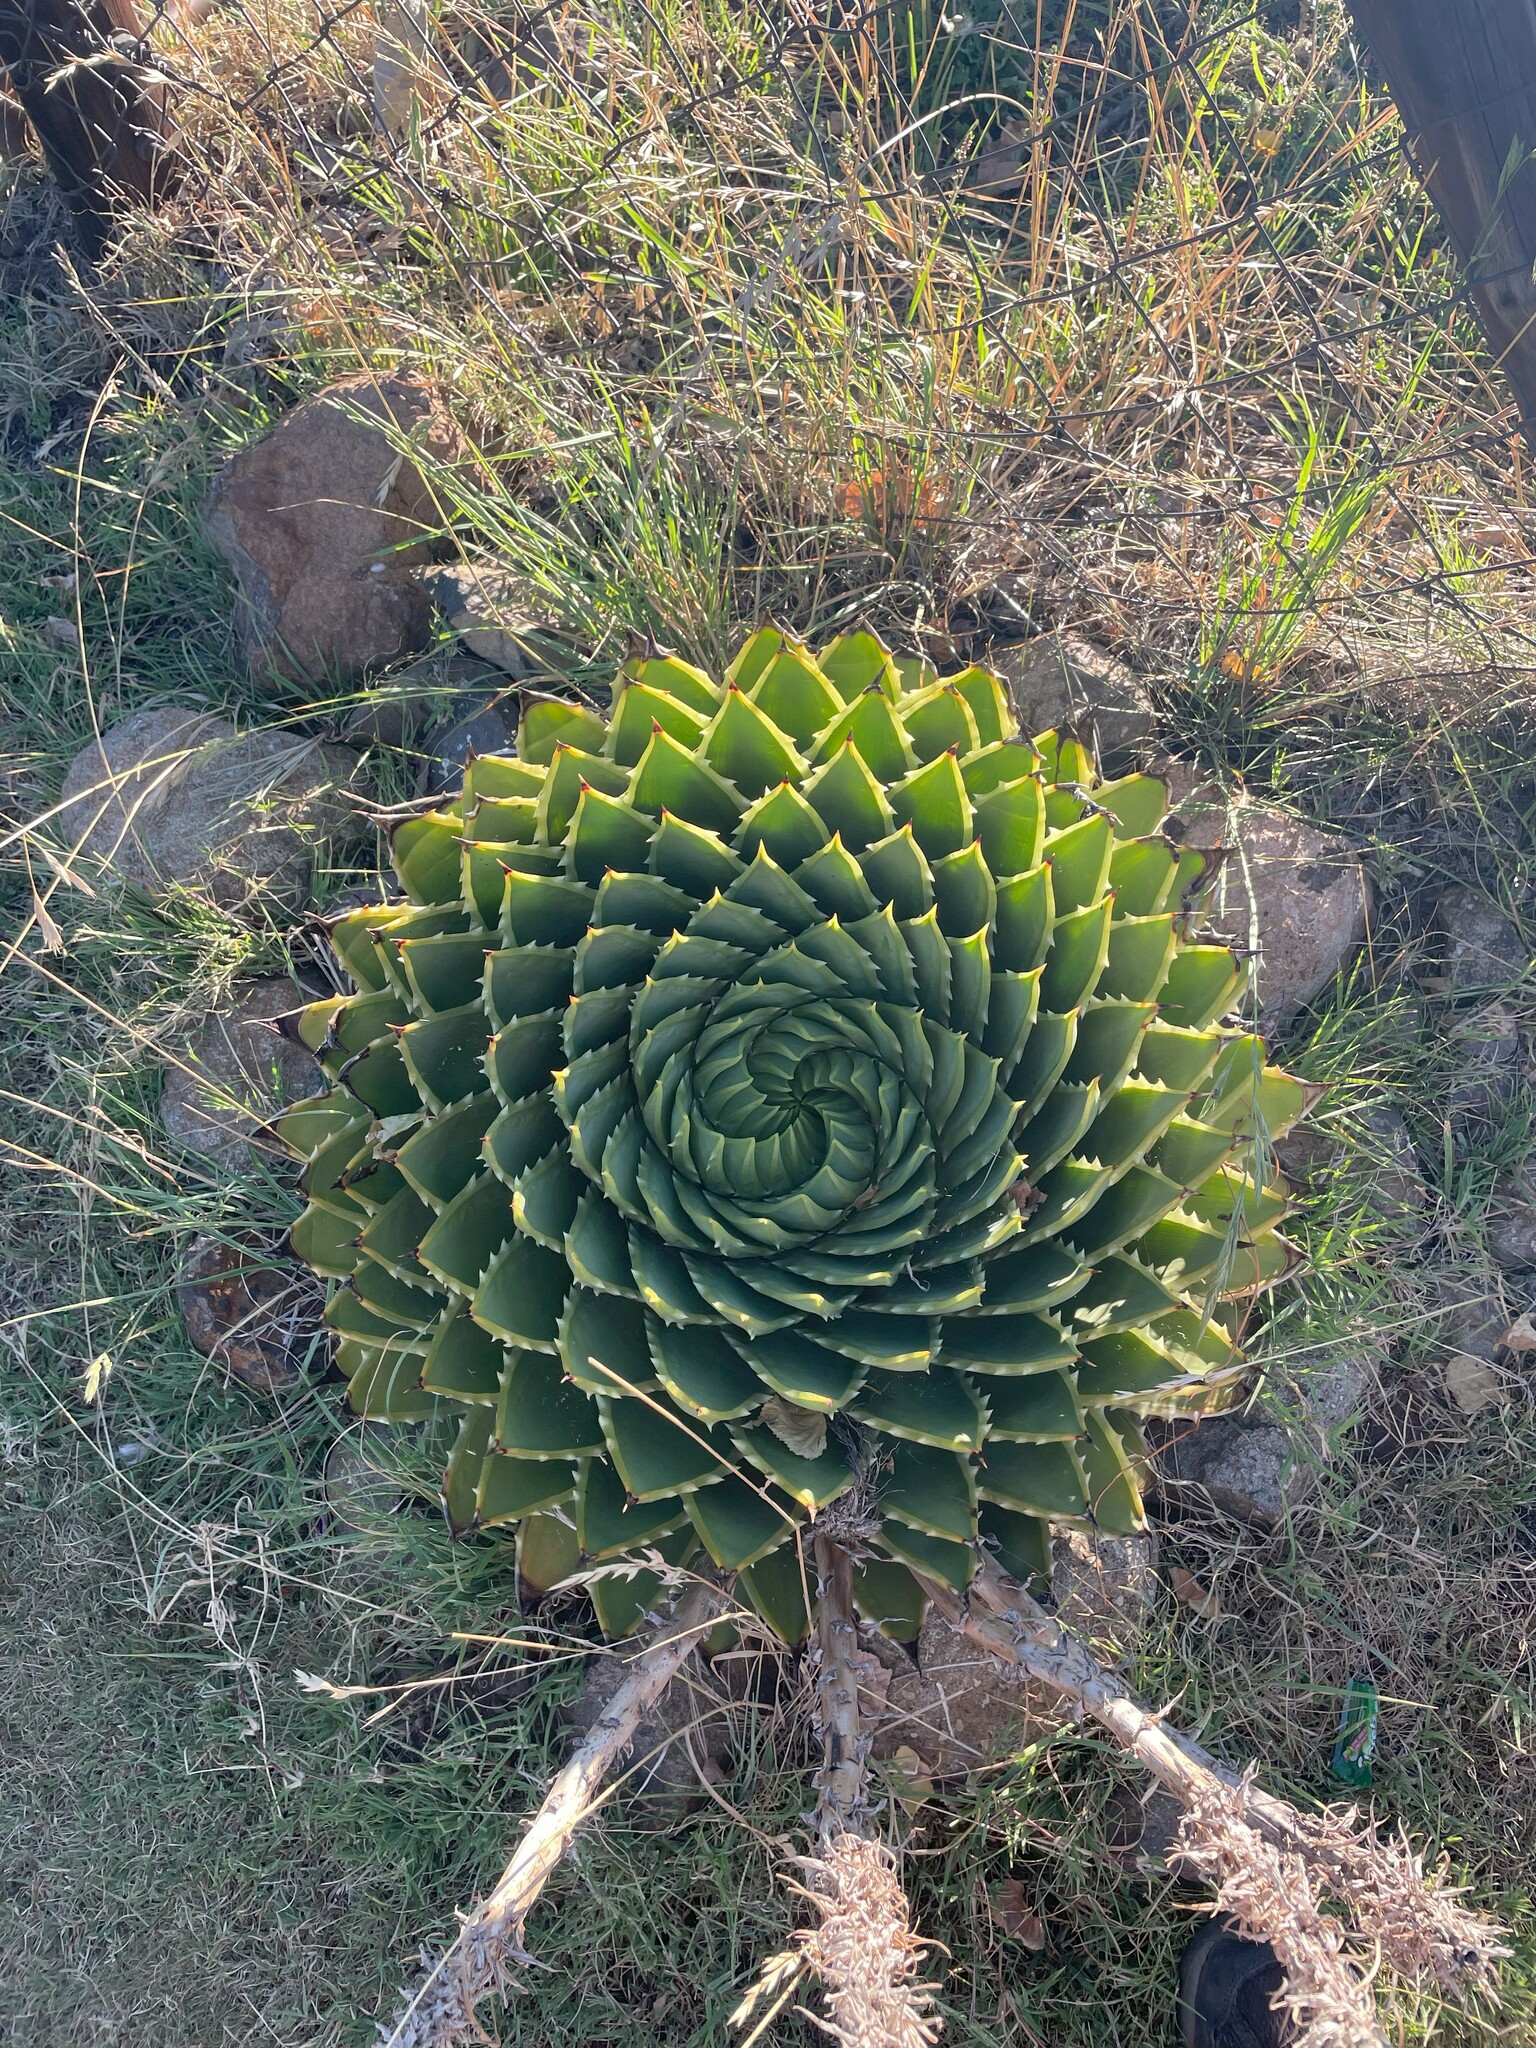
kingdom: Plantae
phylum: Tracheophyta
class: Liliopsida
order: Asparagales
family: Asphodelaceae
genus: Aloe
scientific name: Aloe polyphylla
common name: Basotoland aloe
